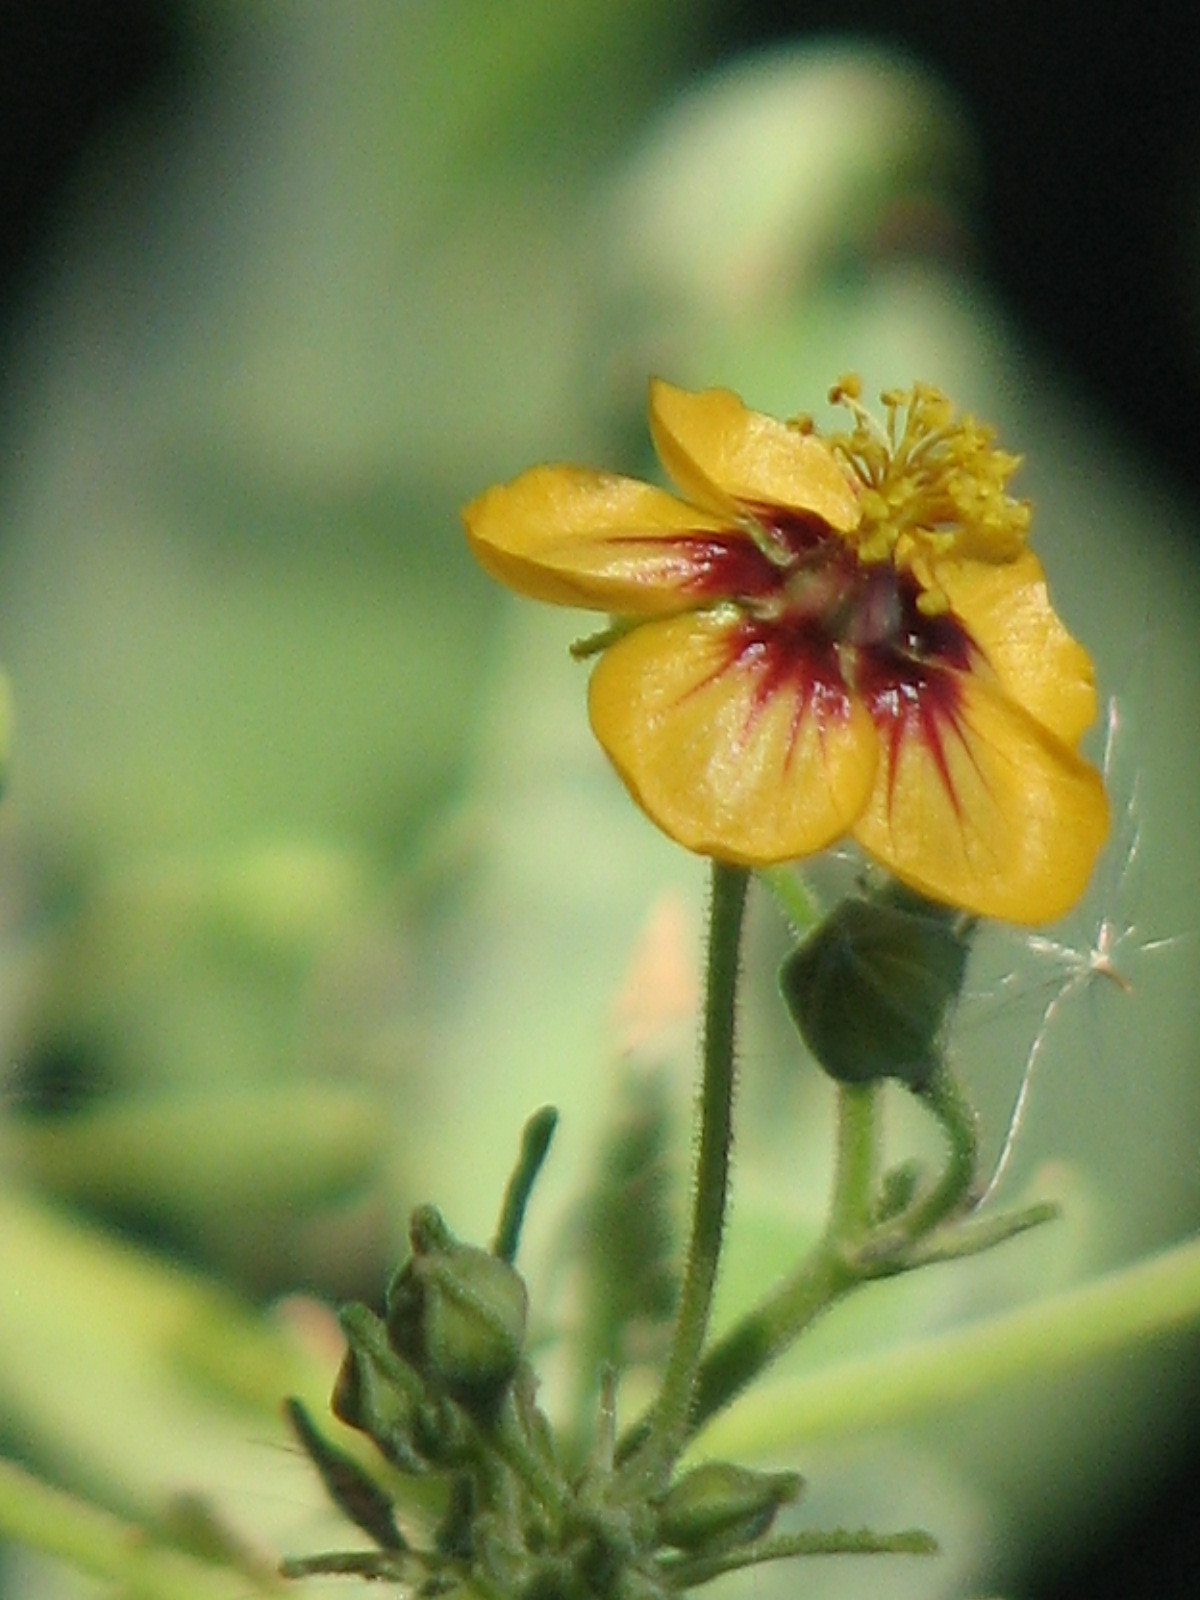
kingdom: Plantae
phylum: Tracheophyta
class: Magnoliopsida
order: Malvales
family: Malvaceae
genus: Abutilon
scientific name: Abutilon trisulcatum
